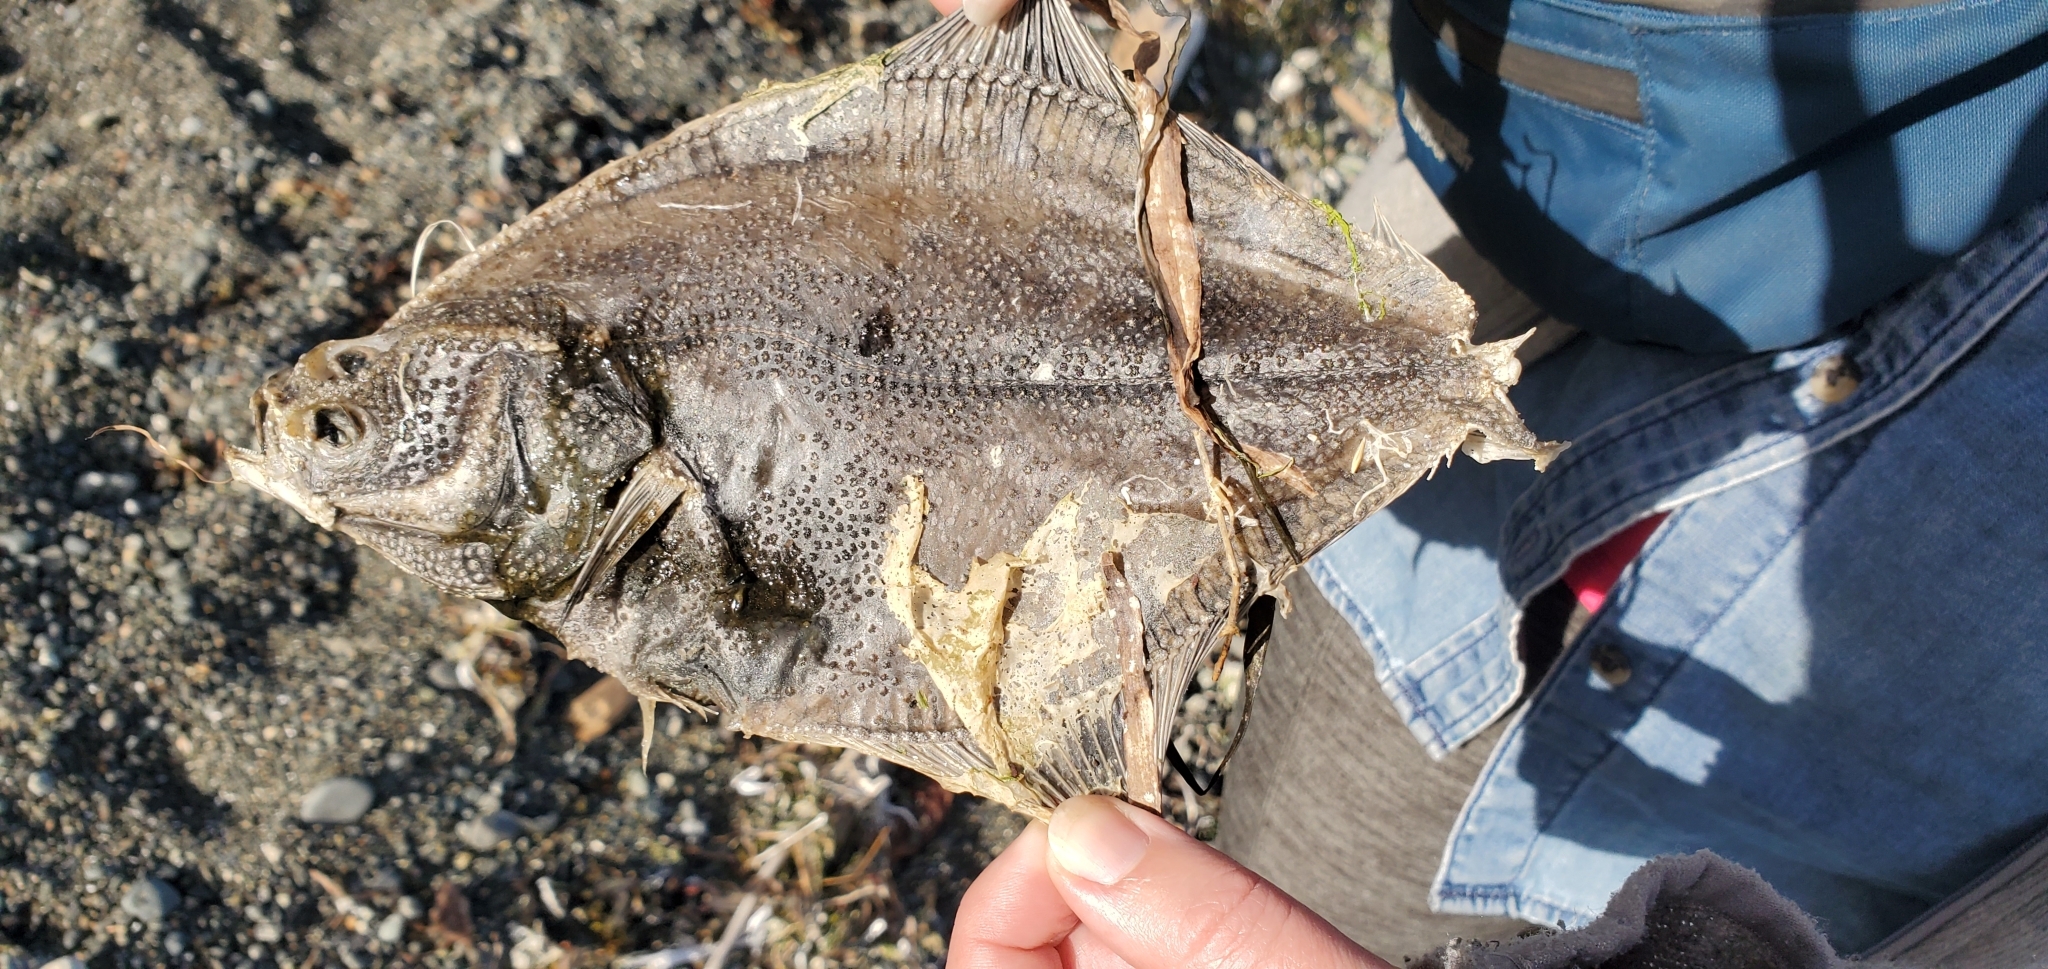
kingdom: Animalia
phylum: Chordata
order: Pleuronectiformes
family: Pleuronectidae
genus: Platichthys
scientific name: Platichthys stellatus
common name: Starry flounder
